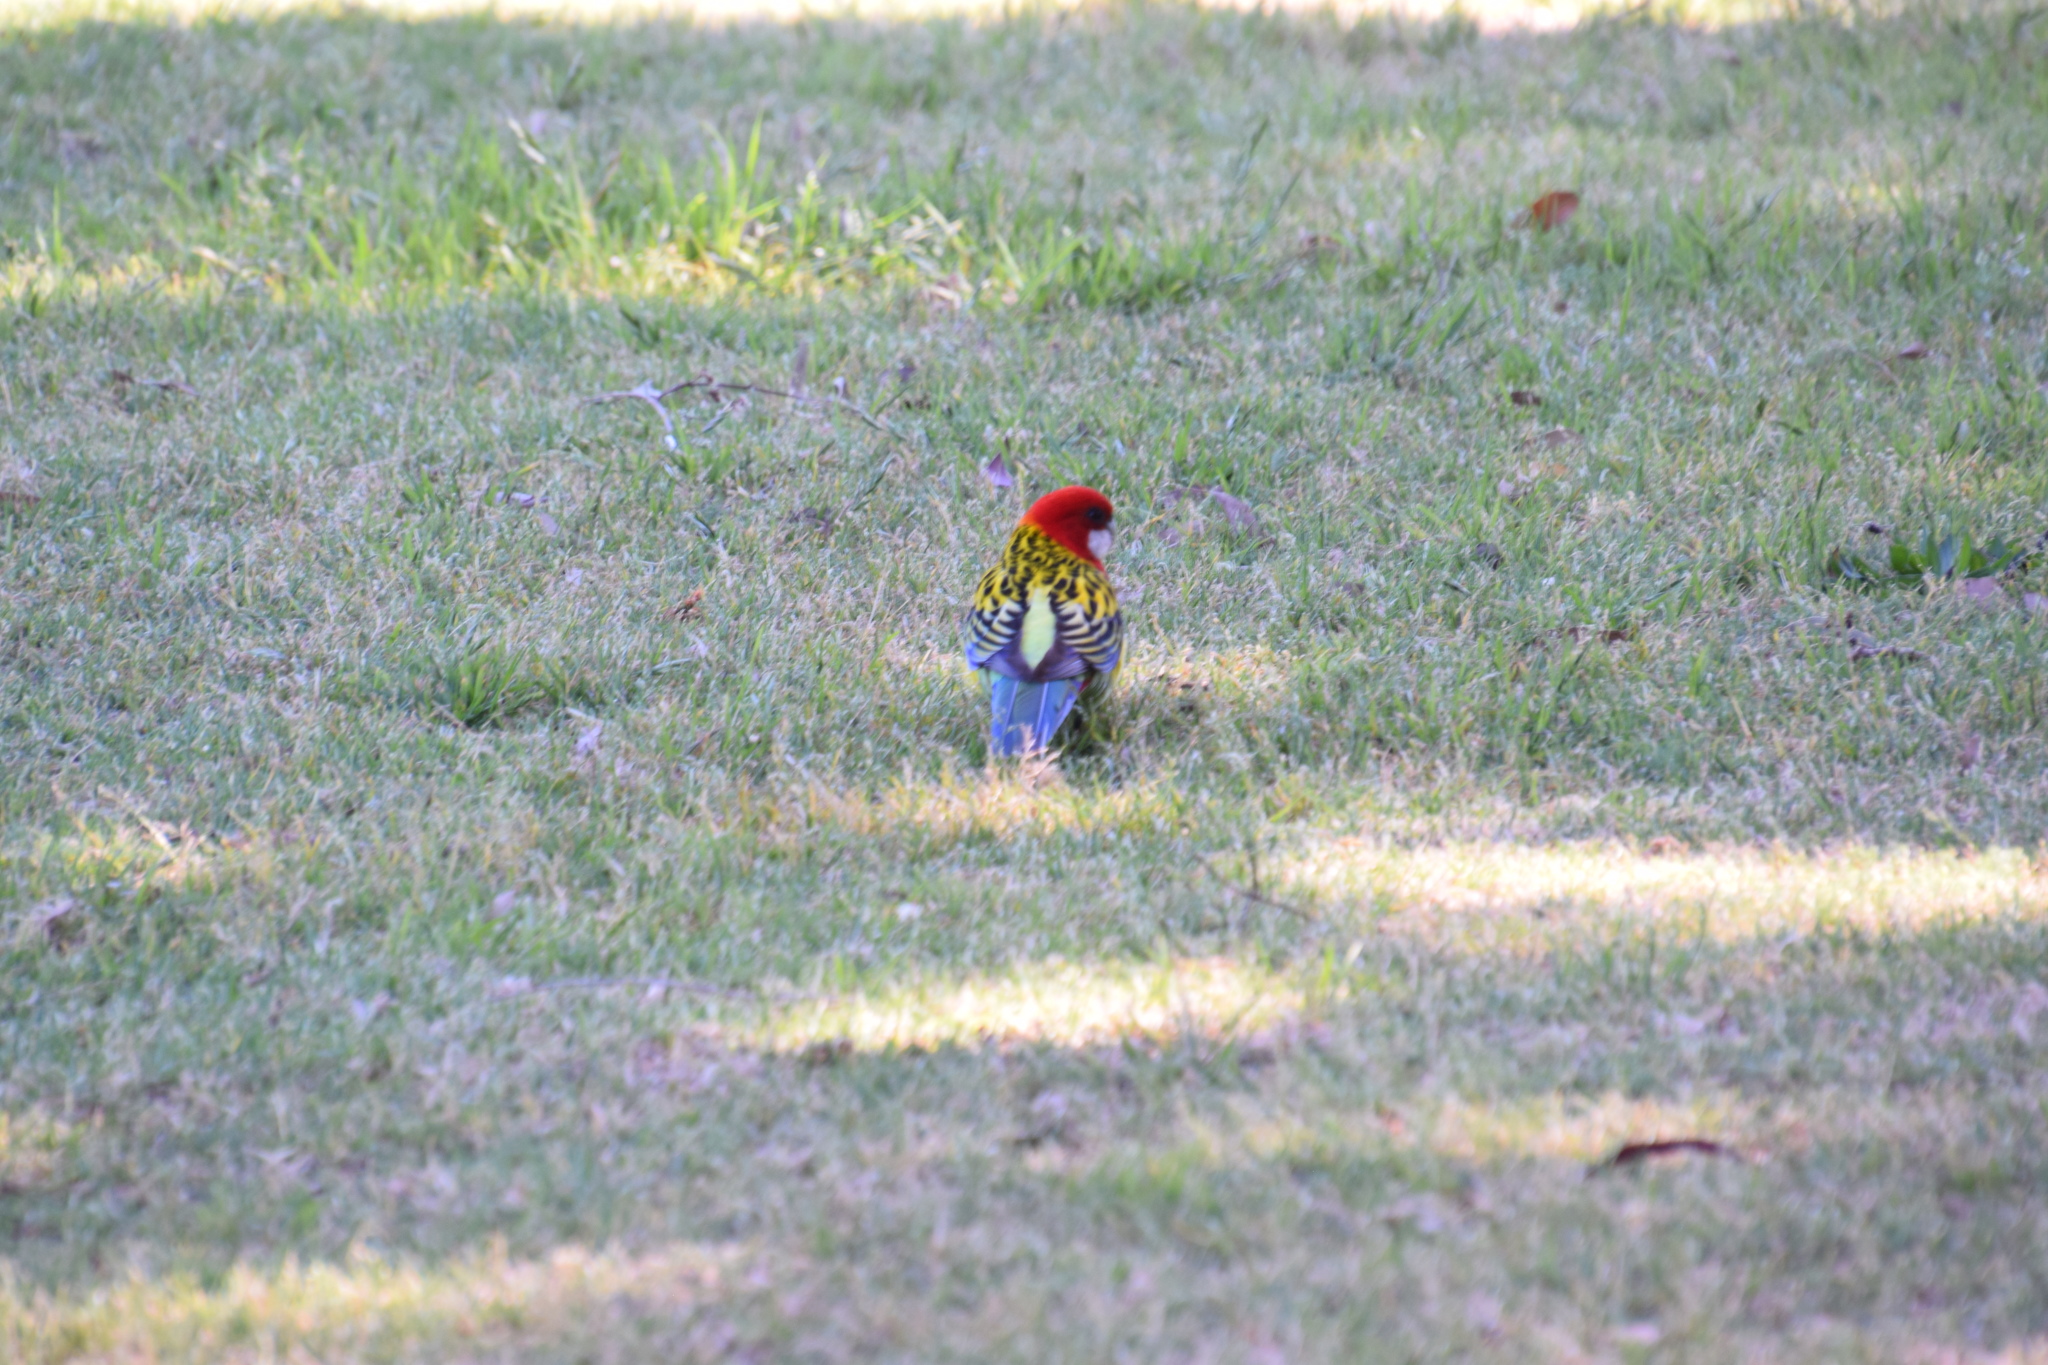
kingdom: Animalia
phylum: Chordata
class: Aves
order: Psittaciformes
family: Psittacidae
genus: Platycercus
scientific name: Platycercus eximius
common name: Eastern rosella
